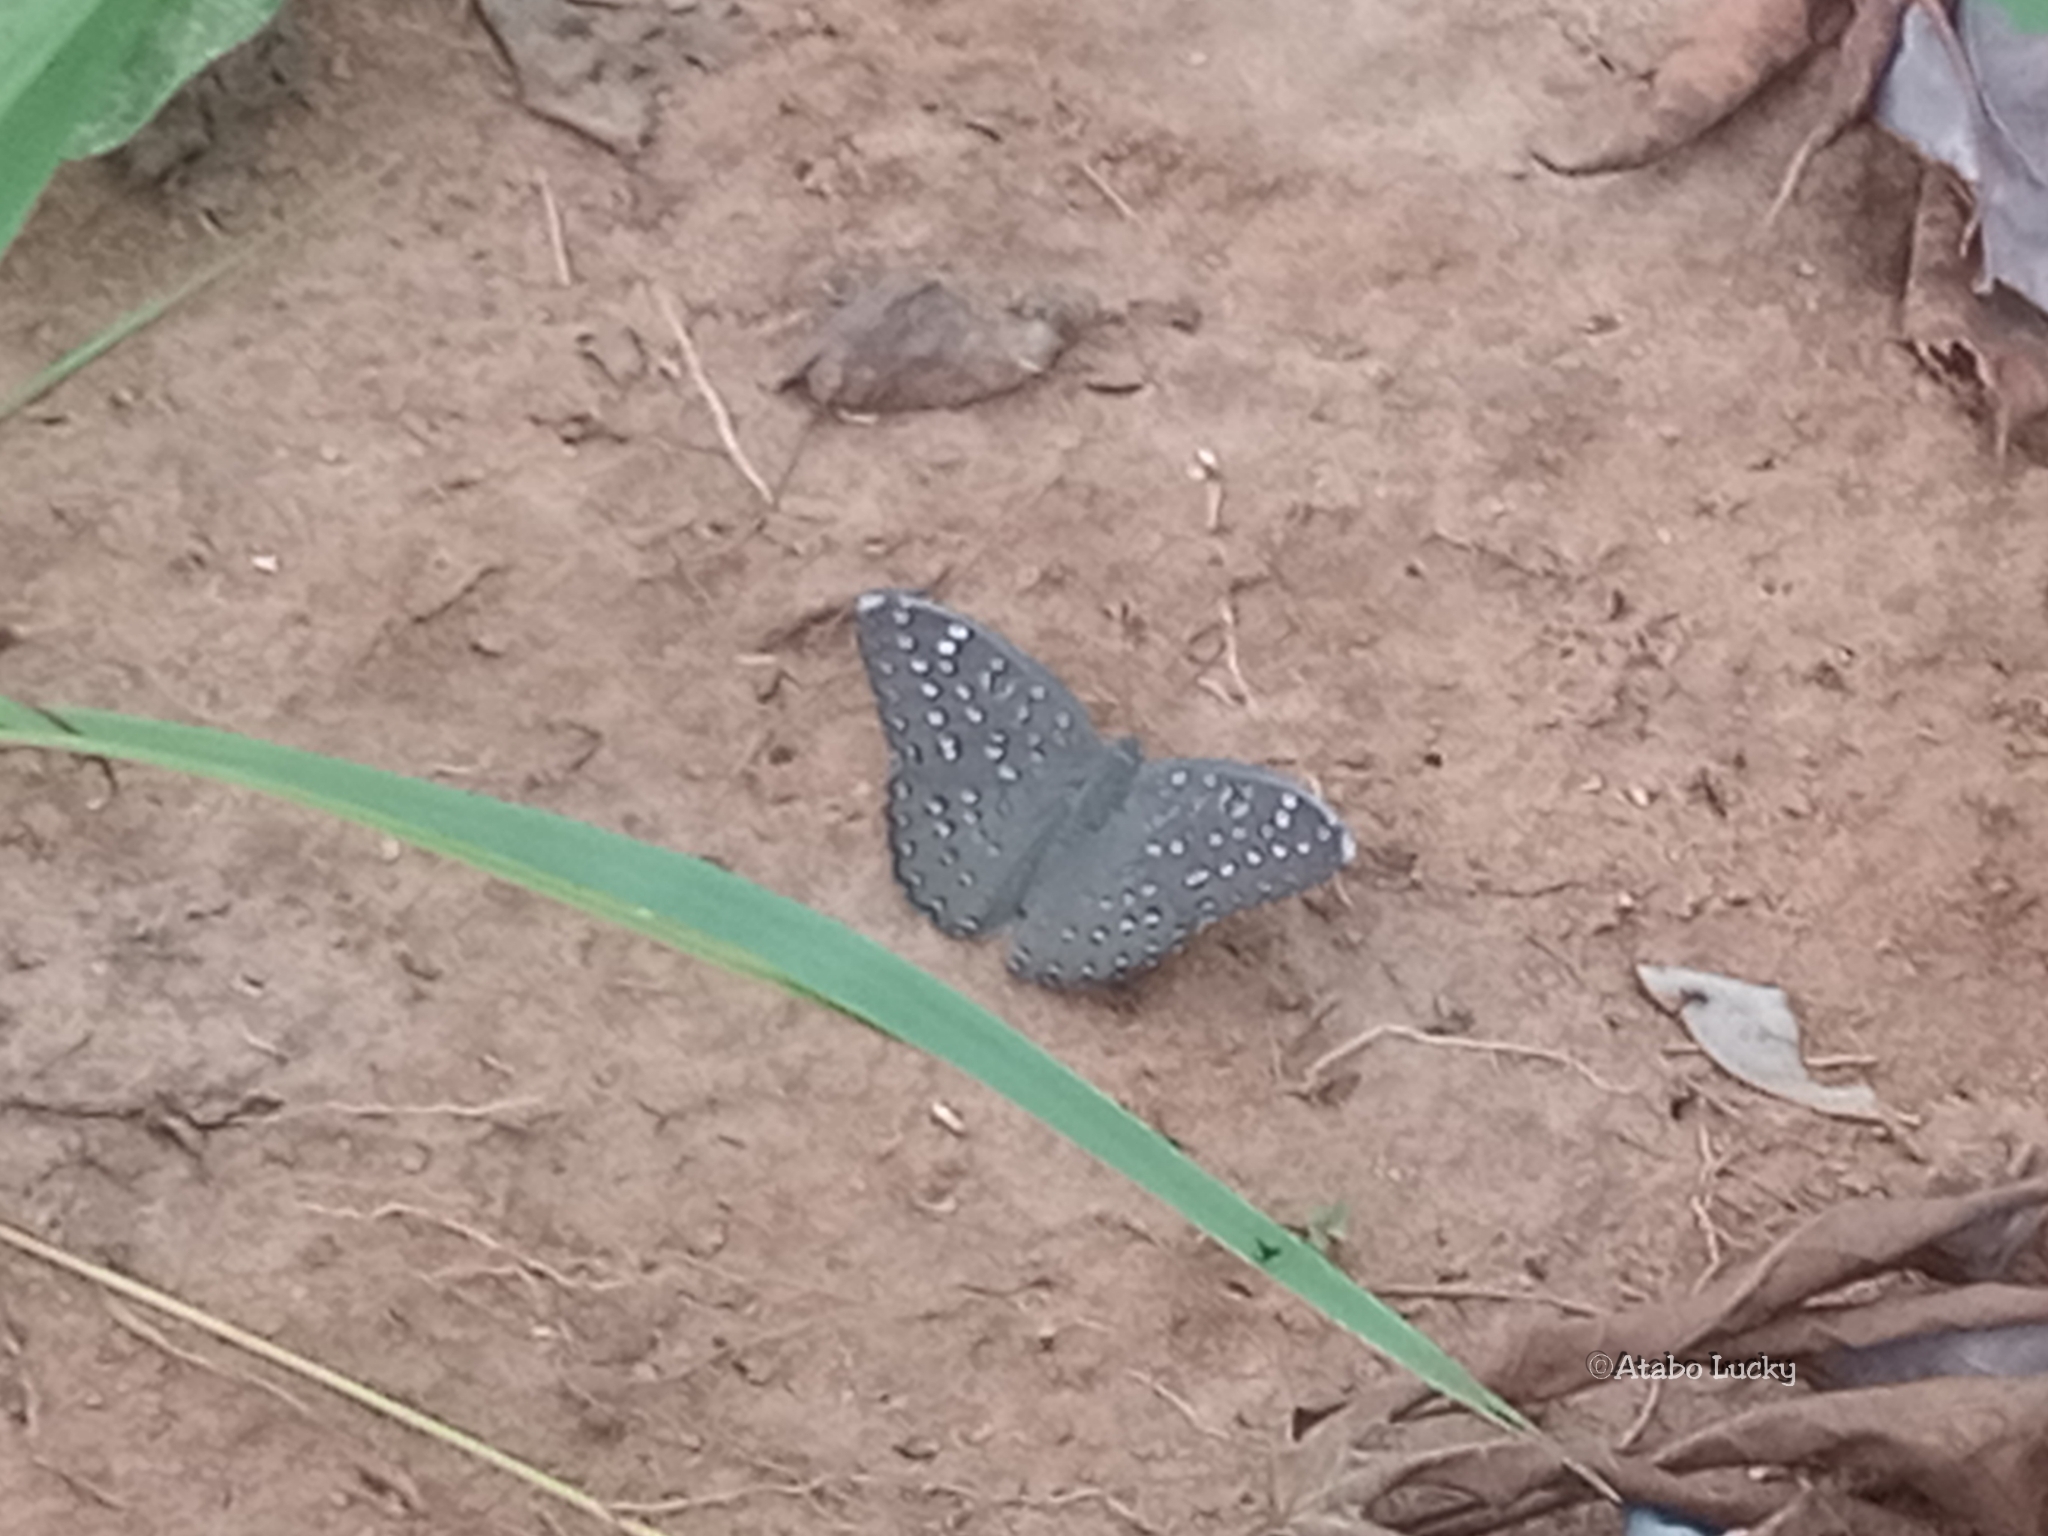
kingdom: Animalia
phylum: Arthropoda
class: Insecta
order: Lepidoptera
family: Nymphalidae
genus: Hamanumida
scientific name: Hamanumida daedalus
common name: Guinea-fowl butterfly
